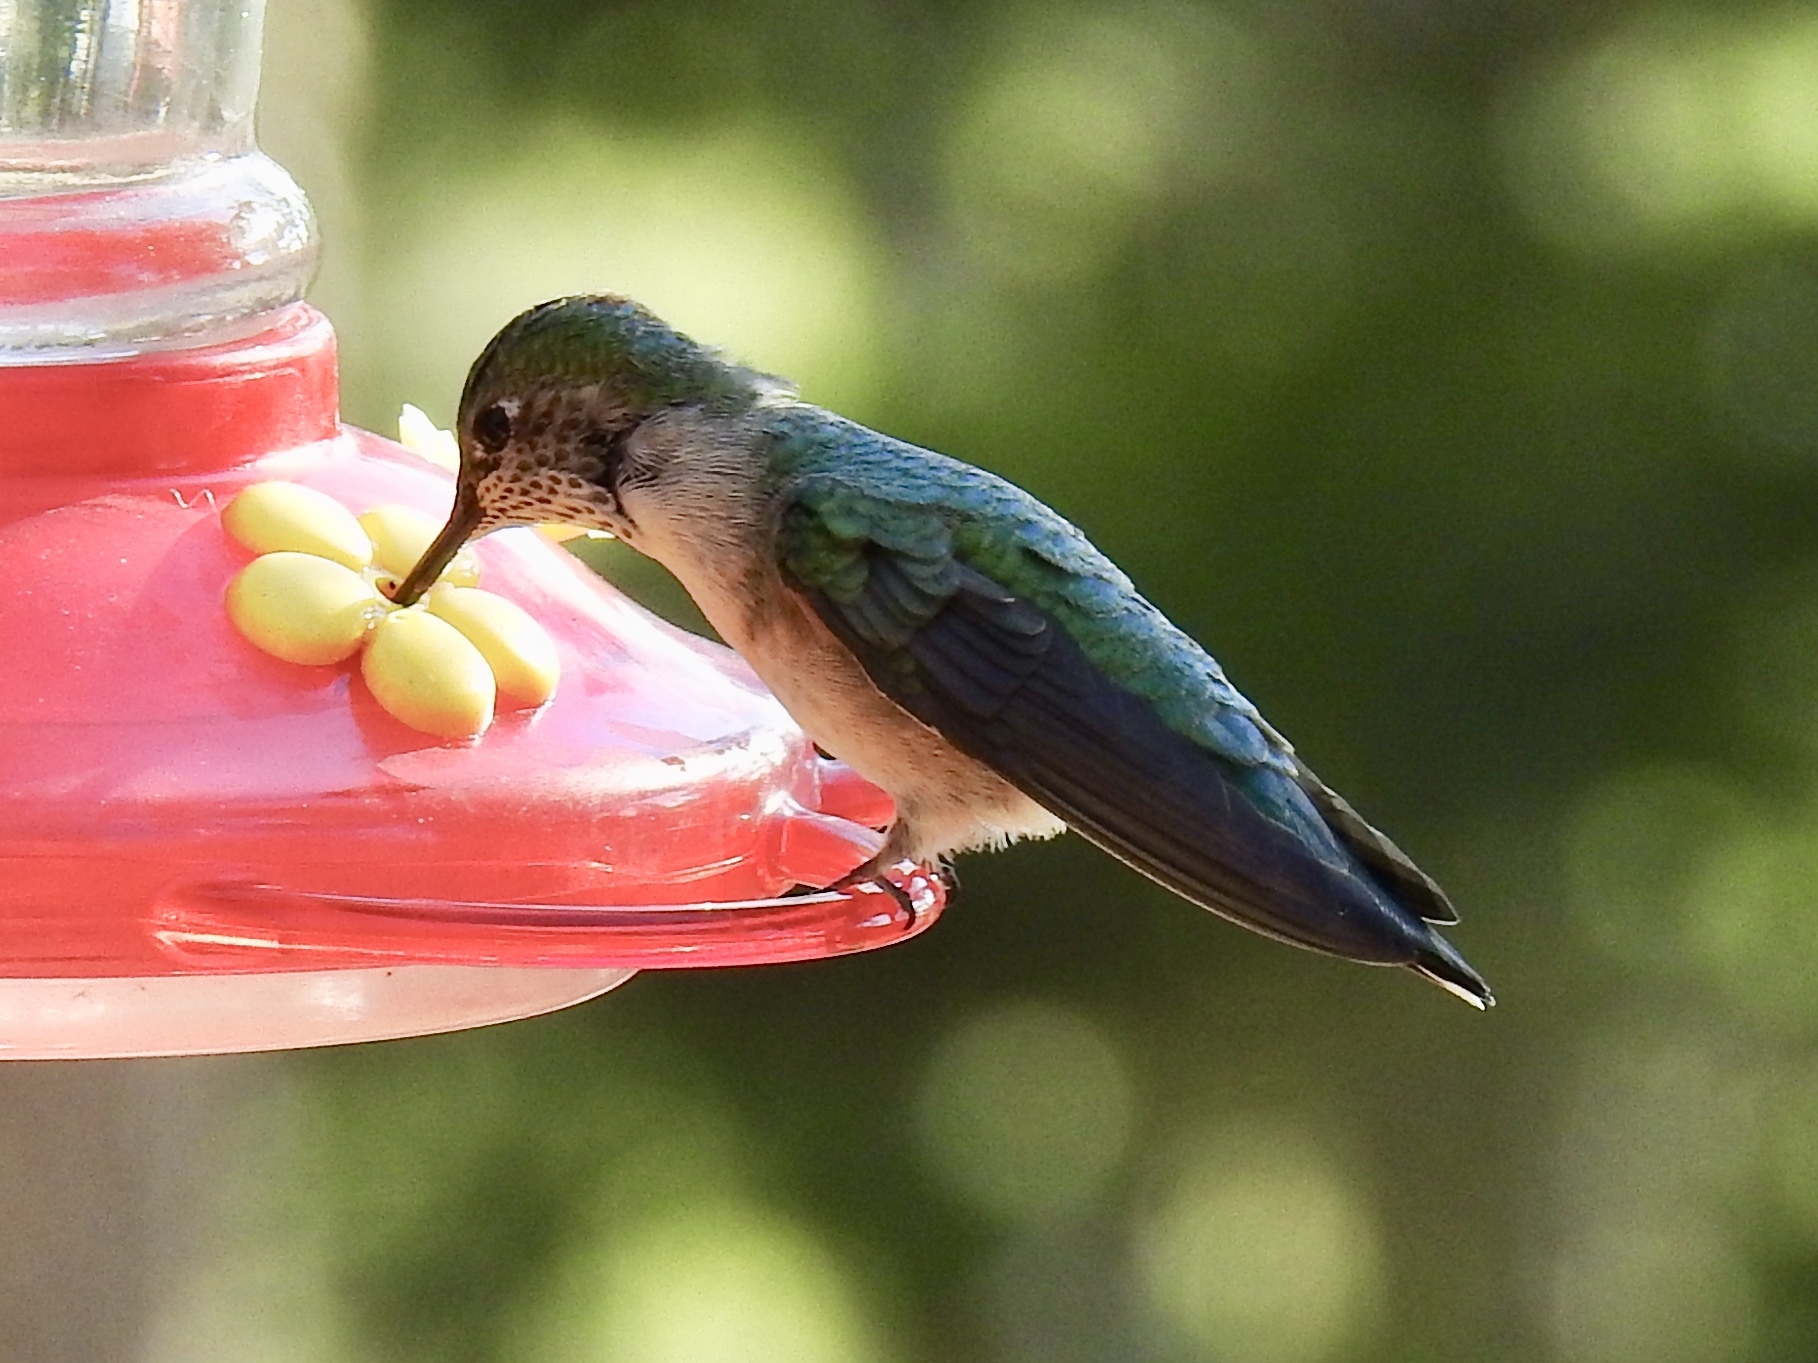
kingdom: Animalia
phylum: Chordata
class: Aves
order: Apodiformes
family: Trochilidae
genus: Selasphorus
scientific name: Selasphorus platycercus
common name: Broad-tailed hummingbird
